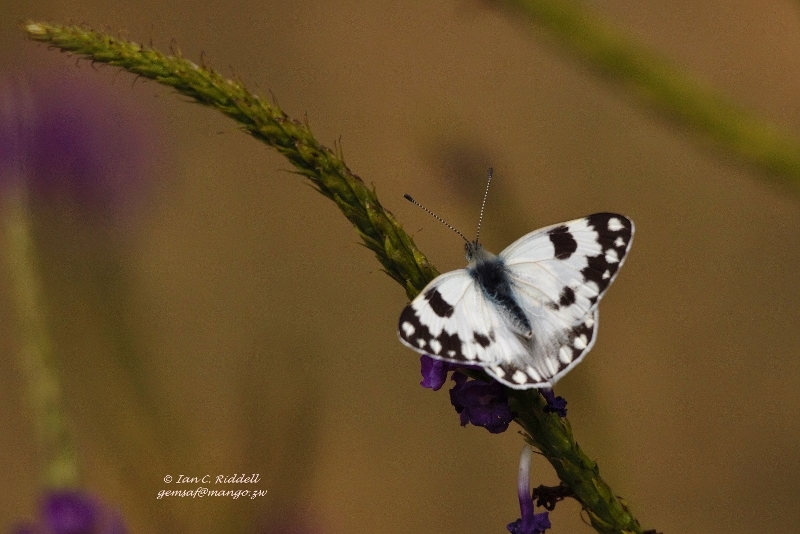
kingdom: Animalia
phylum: Arthropoda
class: Insecta
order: Lepidoptera
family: Pieridae
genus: Pontia
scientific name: Pontia helice
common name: Meadow white
